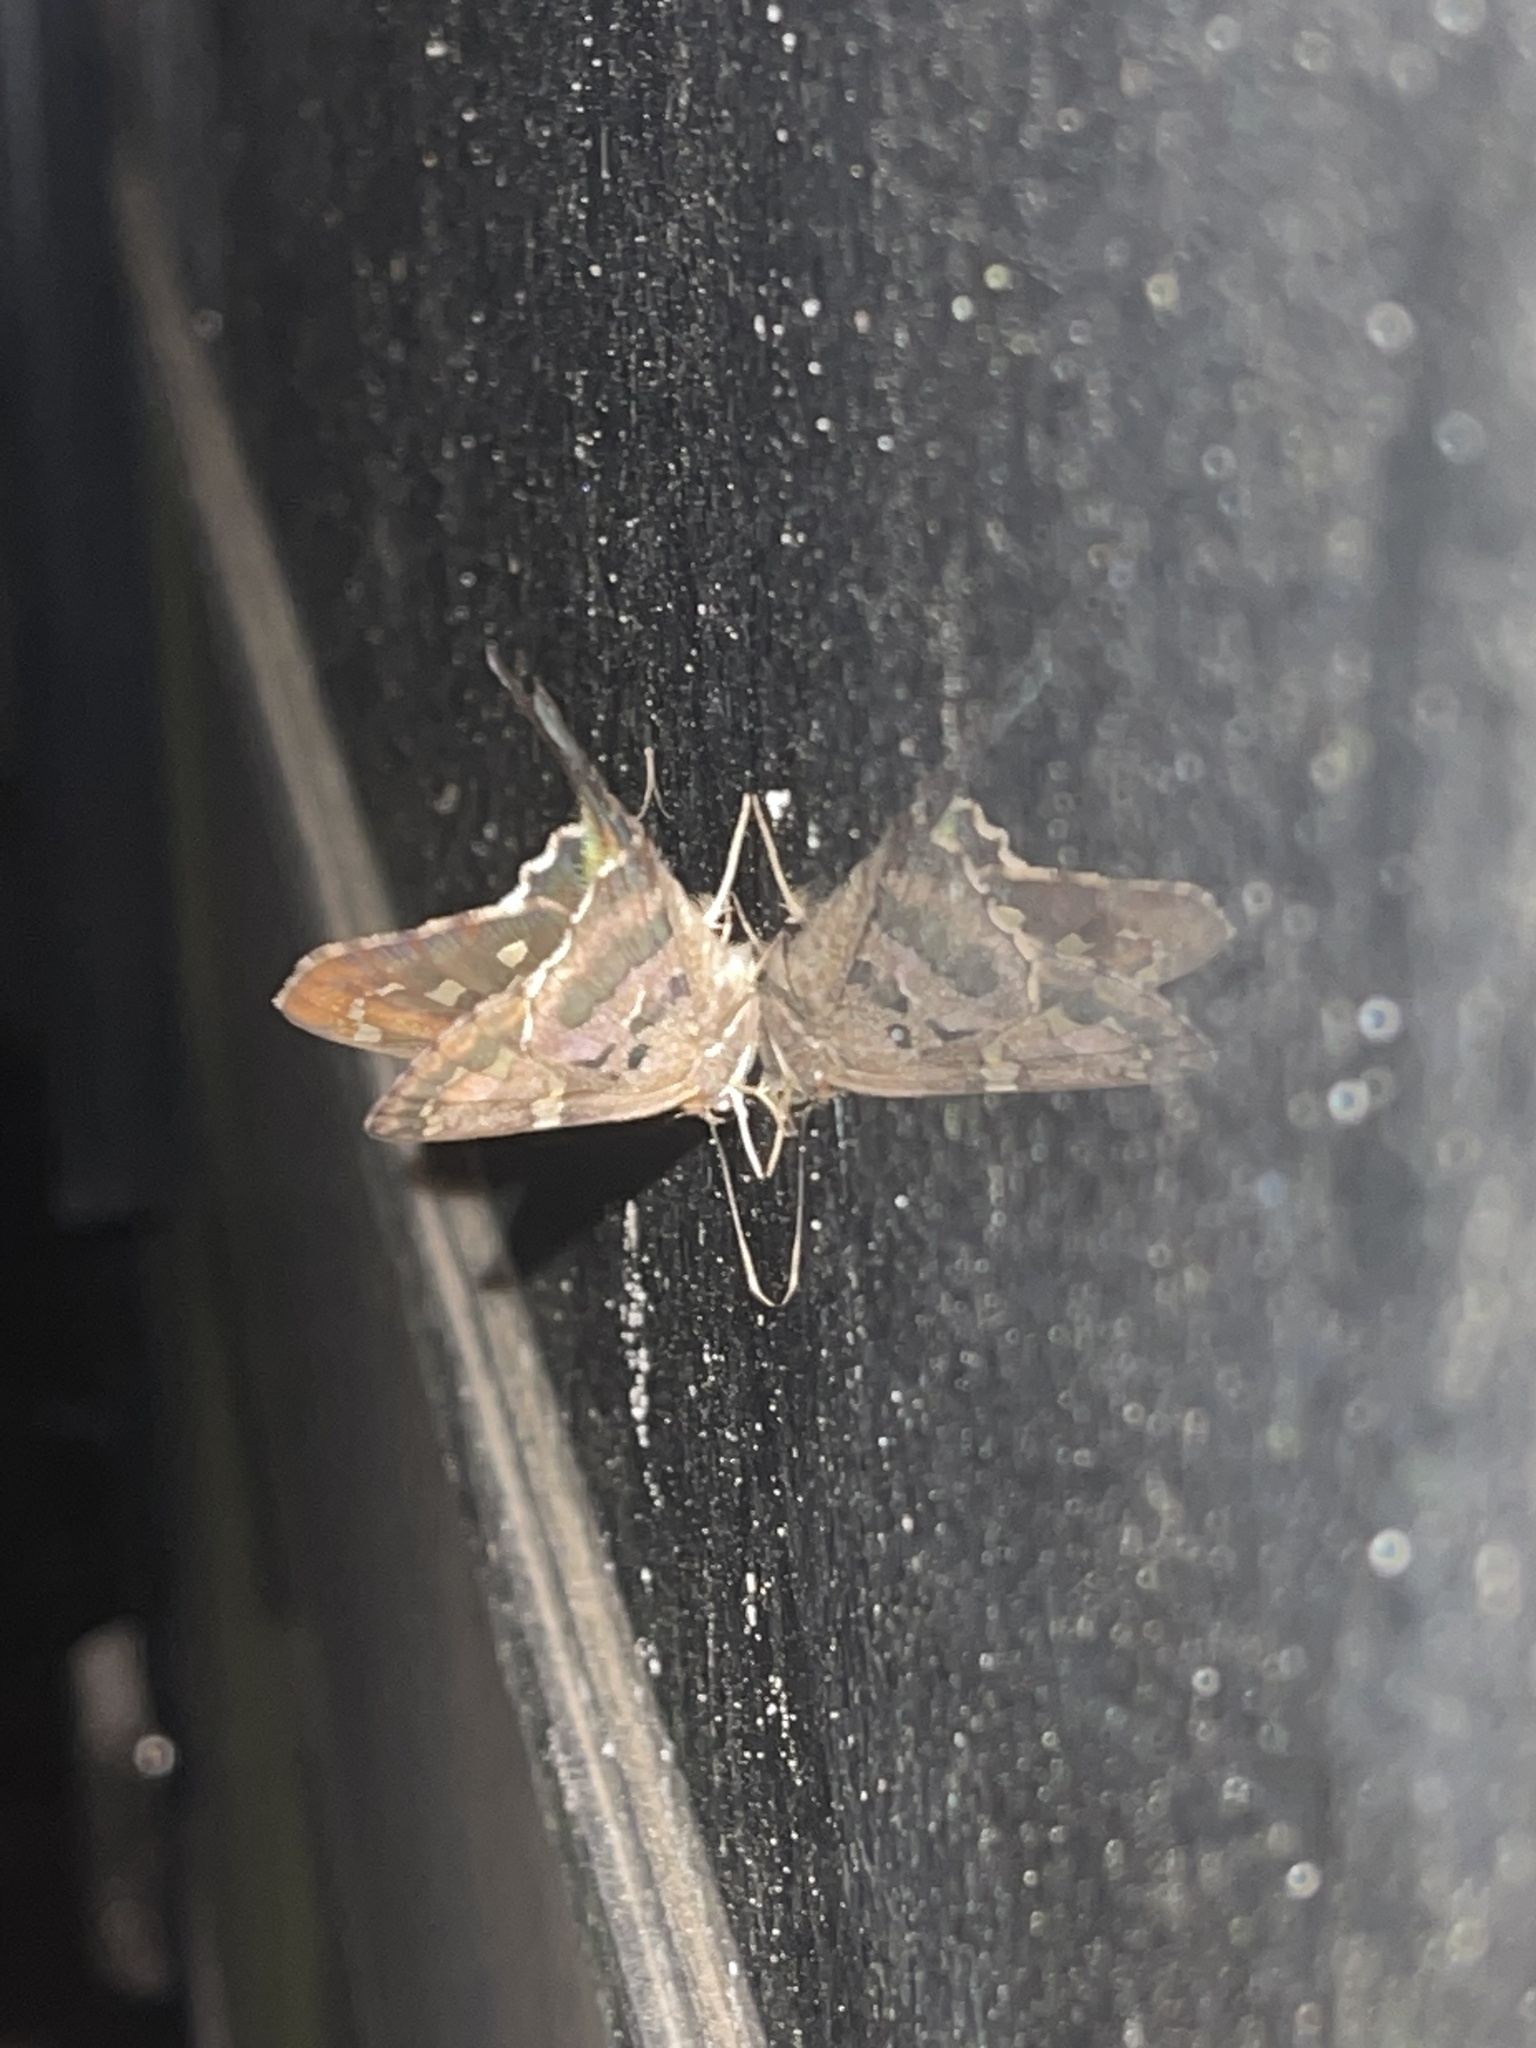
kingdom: Animalia
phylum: Arthropoda
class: Insecta
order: Lepidoptera
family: Hesperiidae
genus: Urbanus
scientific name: Urbanus proteus
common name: Long-tailed skipper
